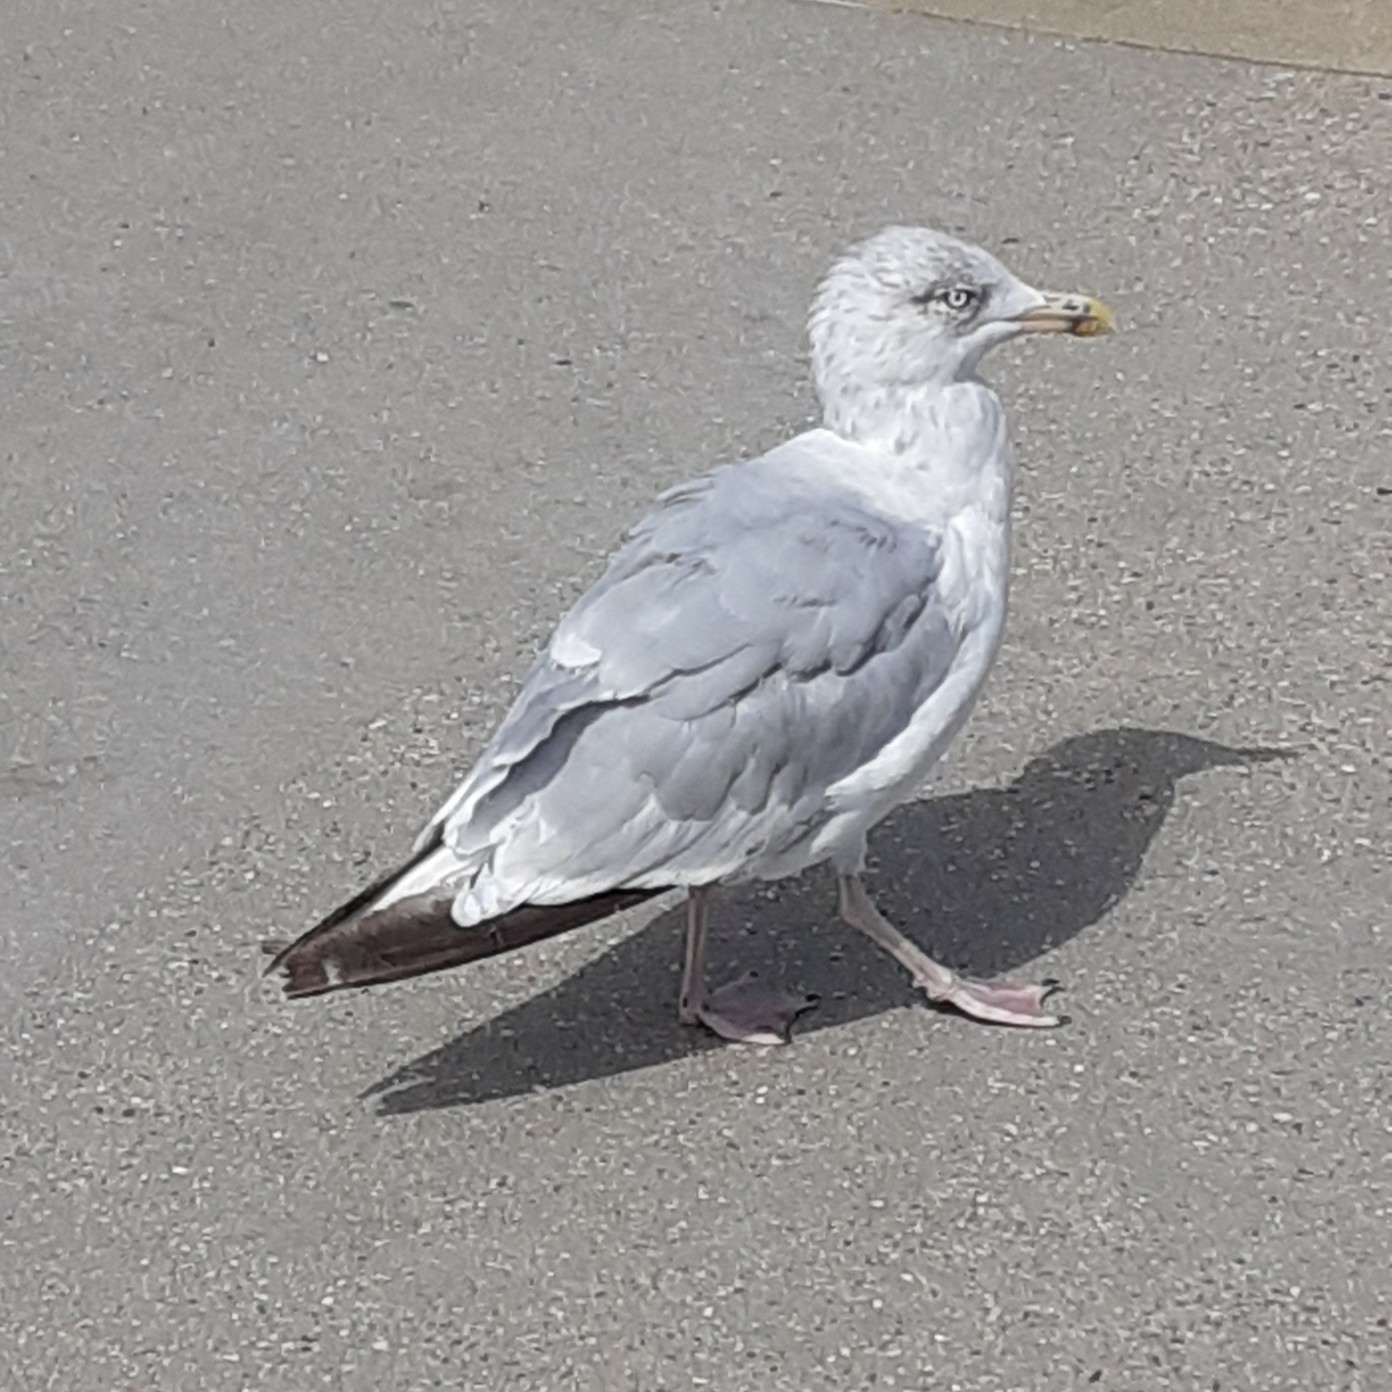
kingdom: Animalia
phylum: Chordata
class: Aves
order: Charadriiformes
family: Laridae
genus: Larus
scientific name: Larus argentatus
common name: Herring gull
